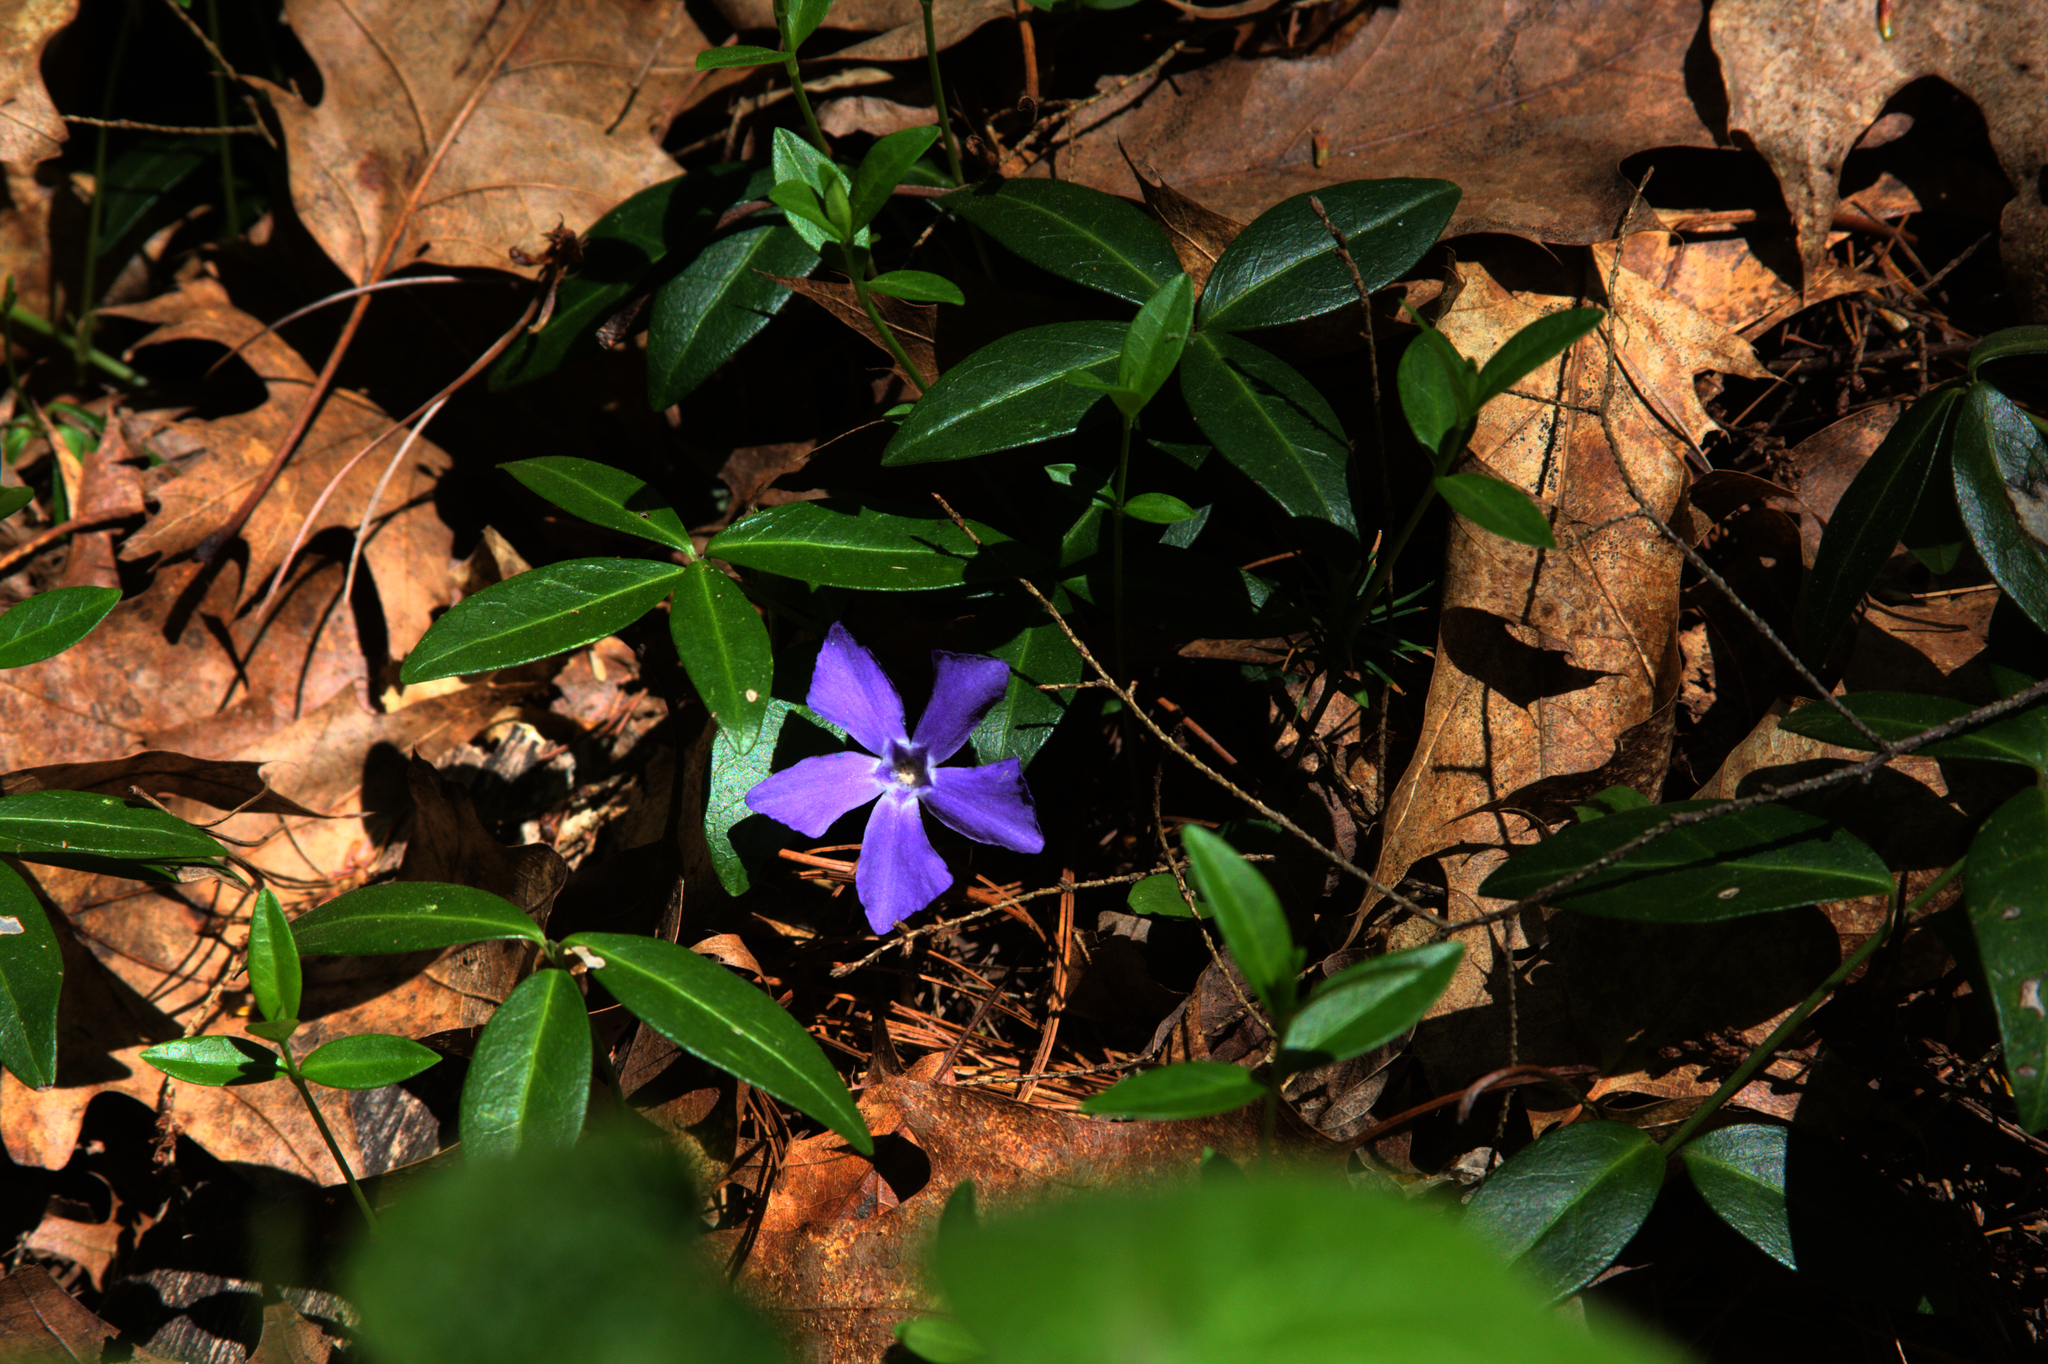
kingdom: Plantae
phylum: Tracheophyta
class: Magnoliopsida
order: Gentianales
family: Apocynaceae
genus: Vinca
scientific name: Vinca minor
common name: Lesser periwinkle
